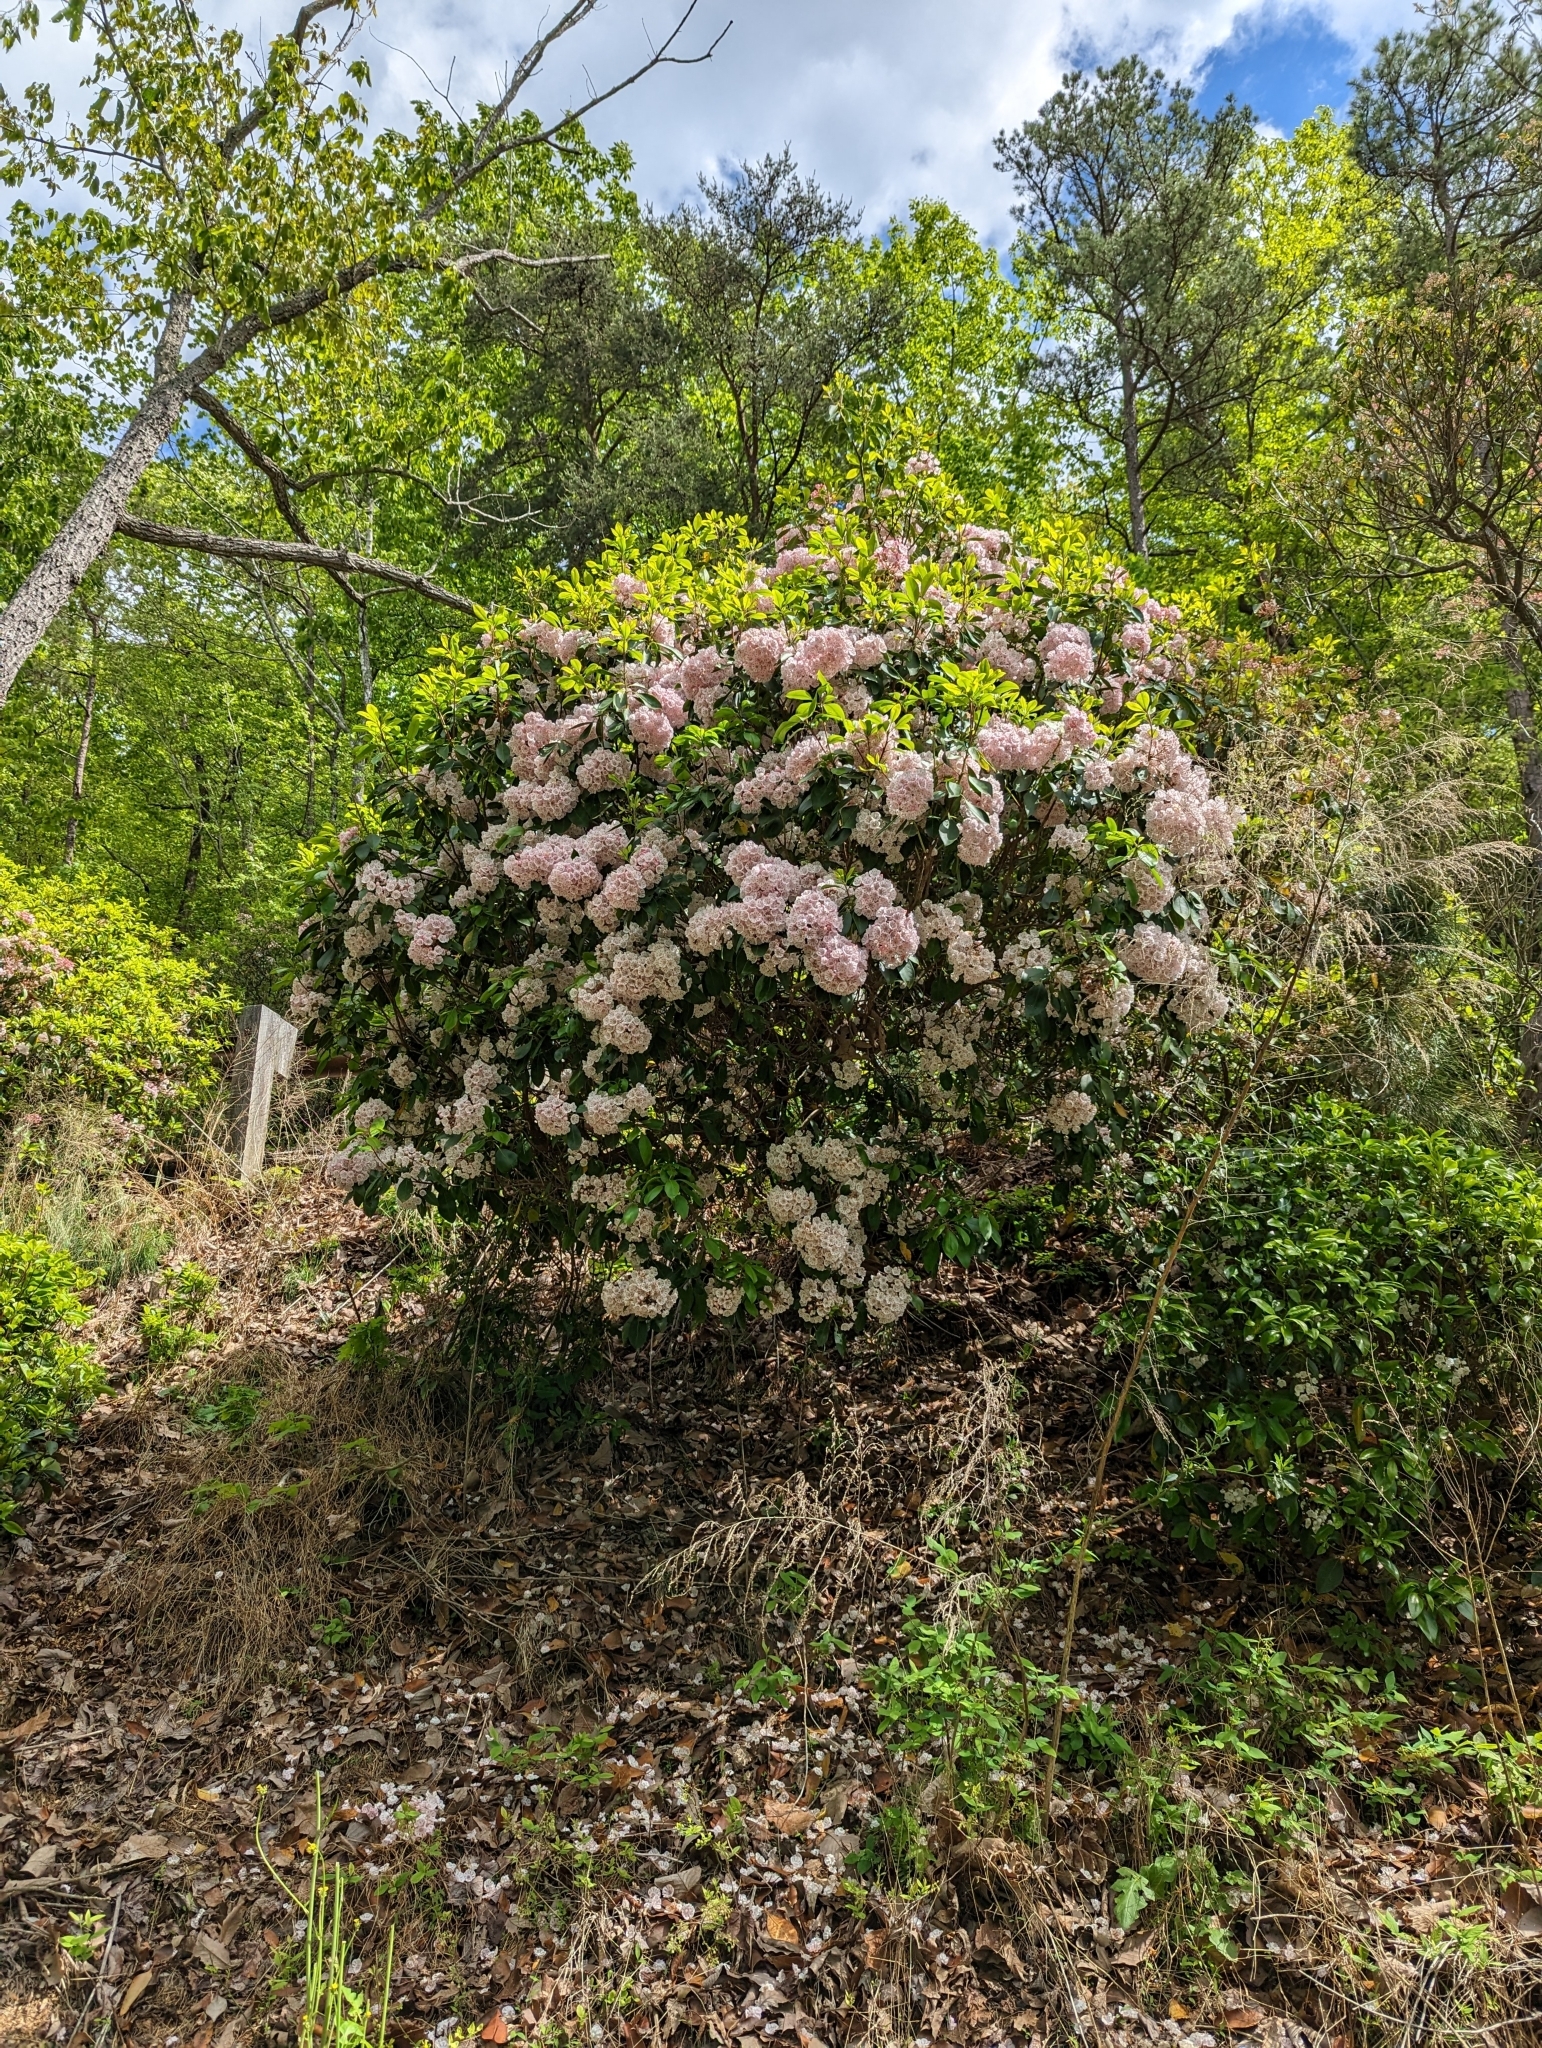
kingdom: Plantae
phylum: Tracheophyta
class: Magnoliopsida
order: Ericales
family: Ericaceae
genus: Kalmia
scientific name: Kalmia latifolia
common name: Mountain-laurel
